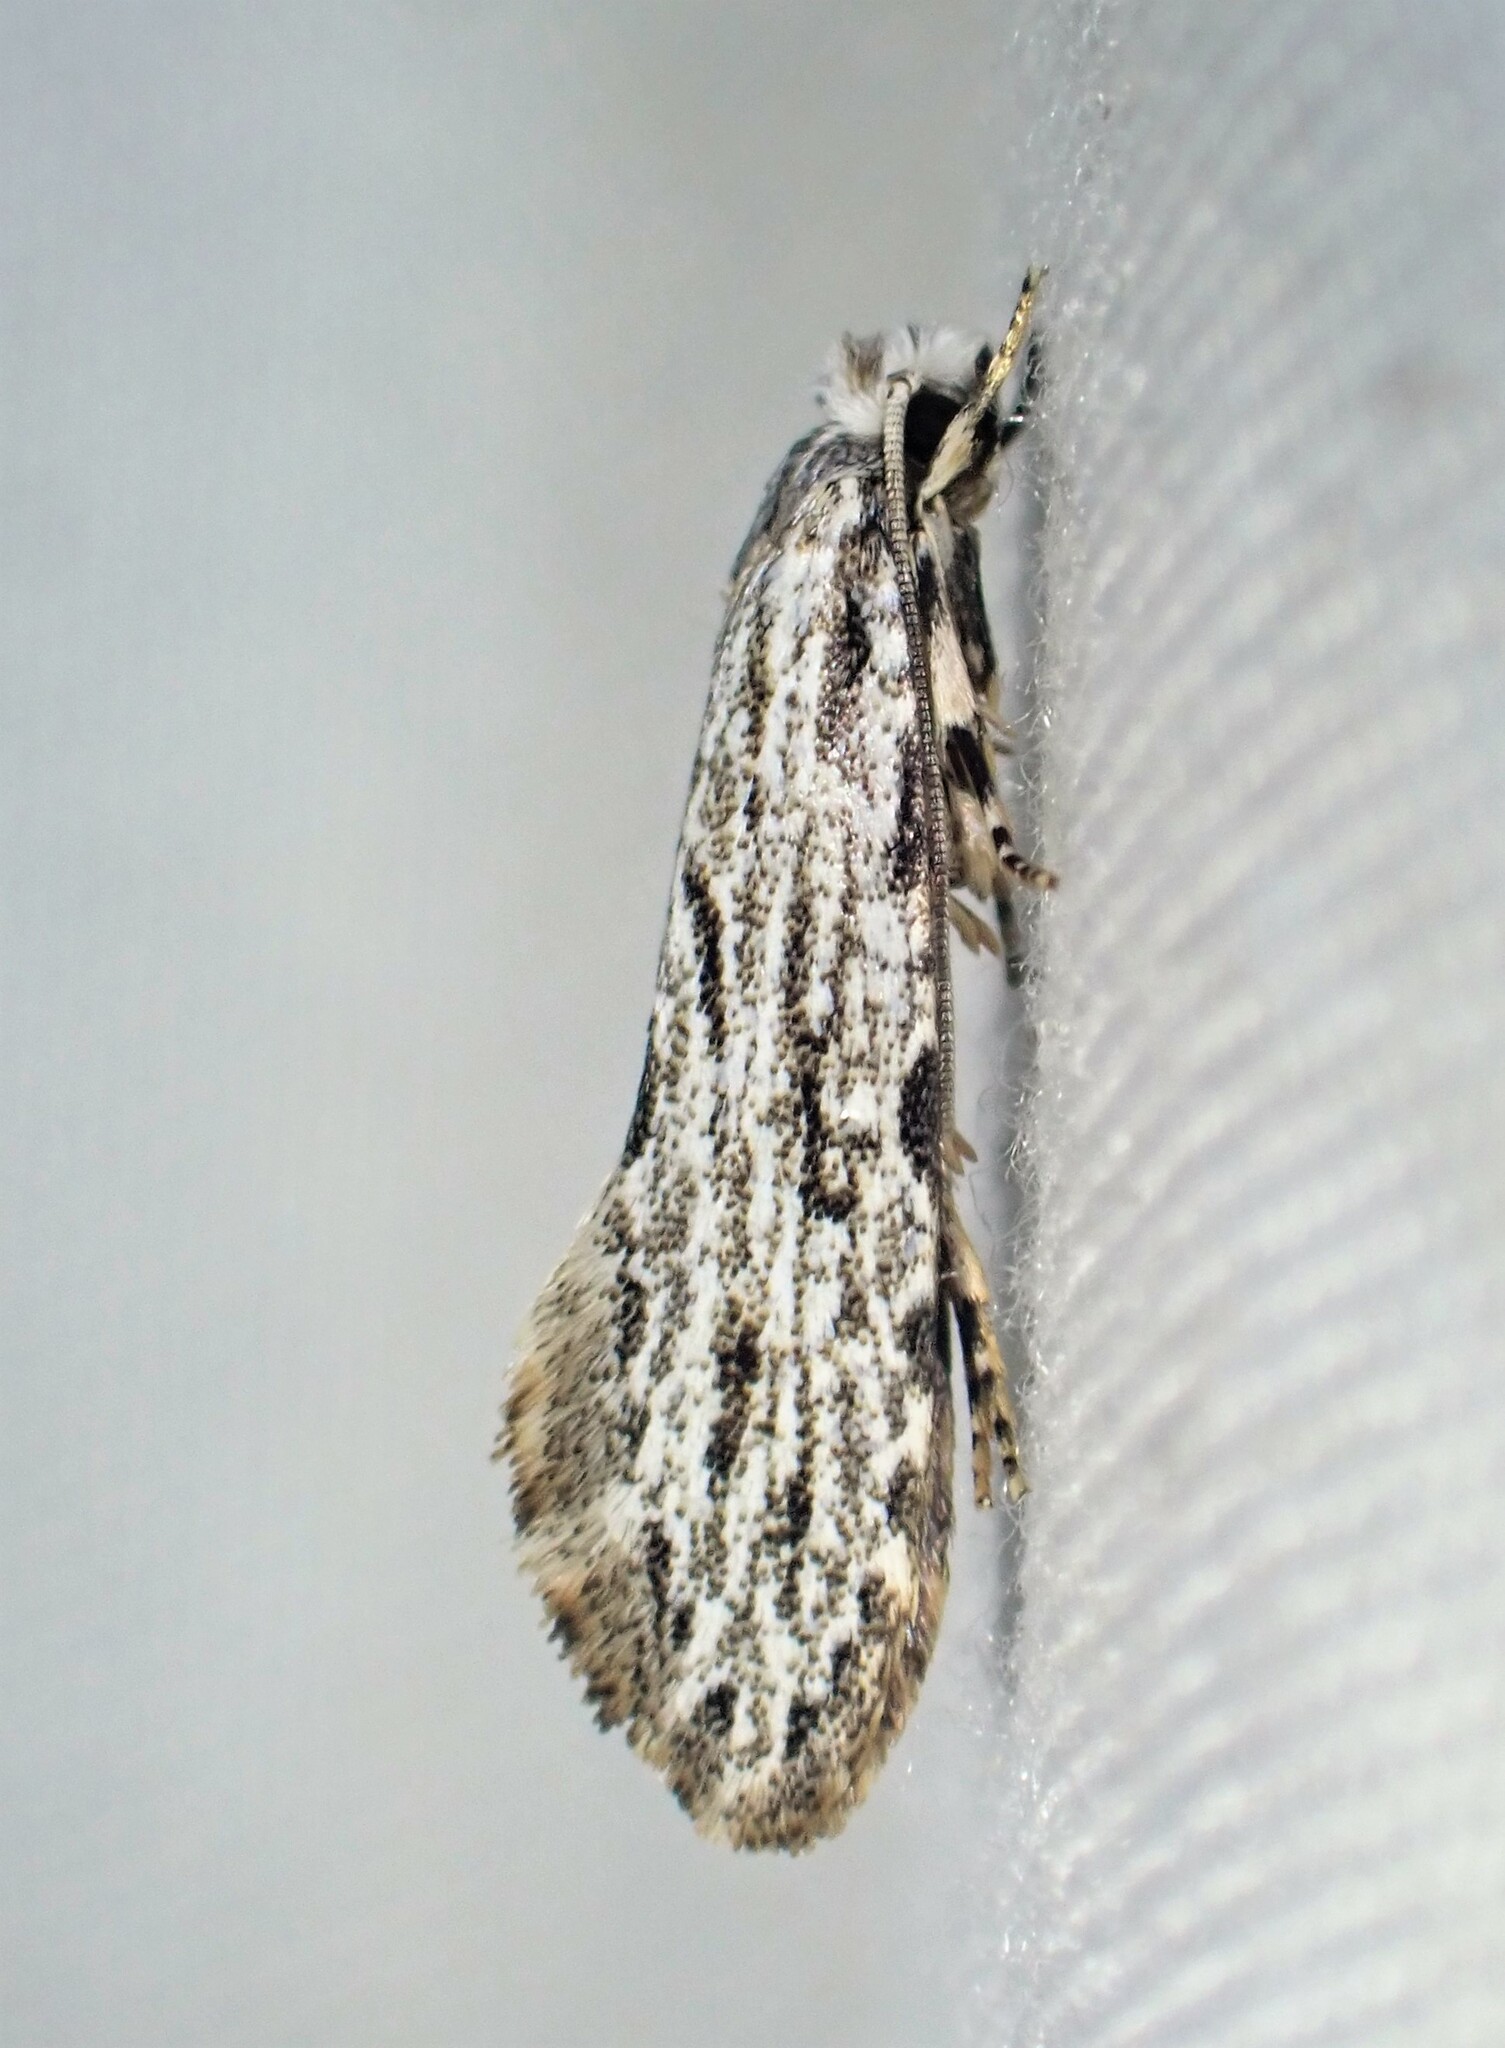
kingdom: Animalia
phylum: Arthropoda
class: Insecta
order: Lepidoptera
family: Tineidae
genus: Nemapogon
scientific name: Nemapogon multistriatella
